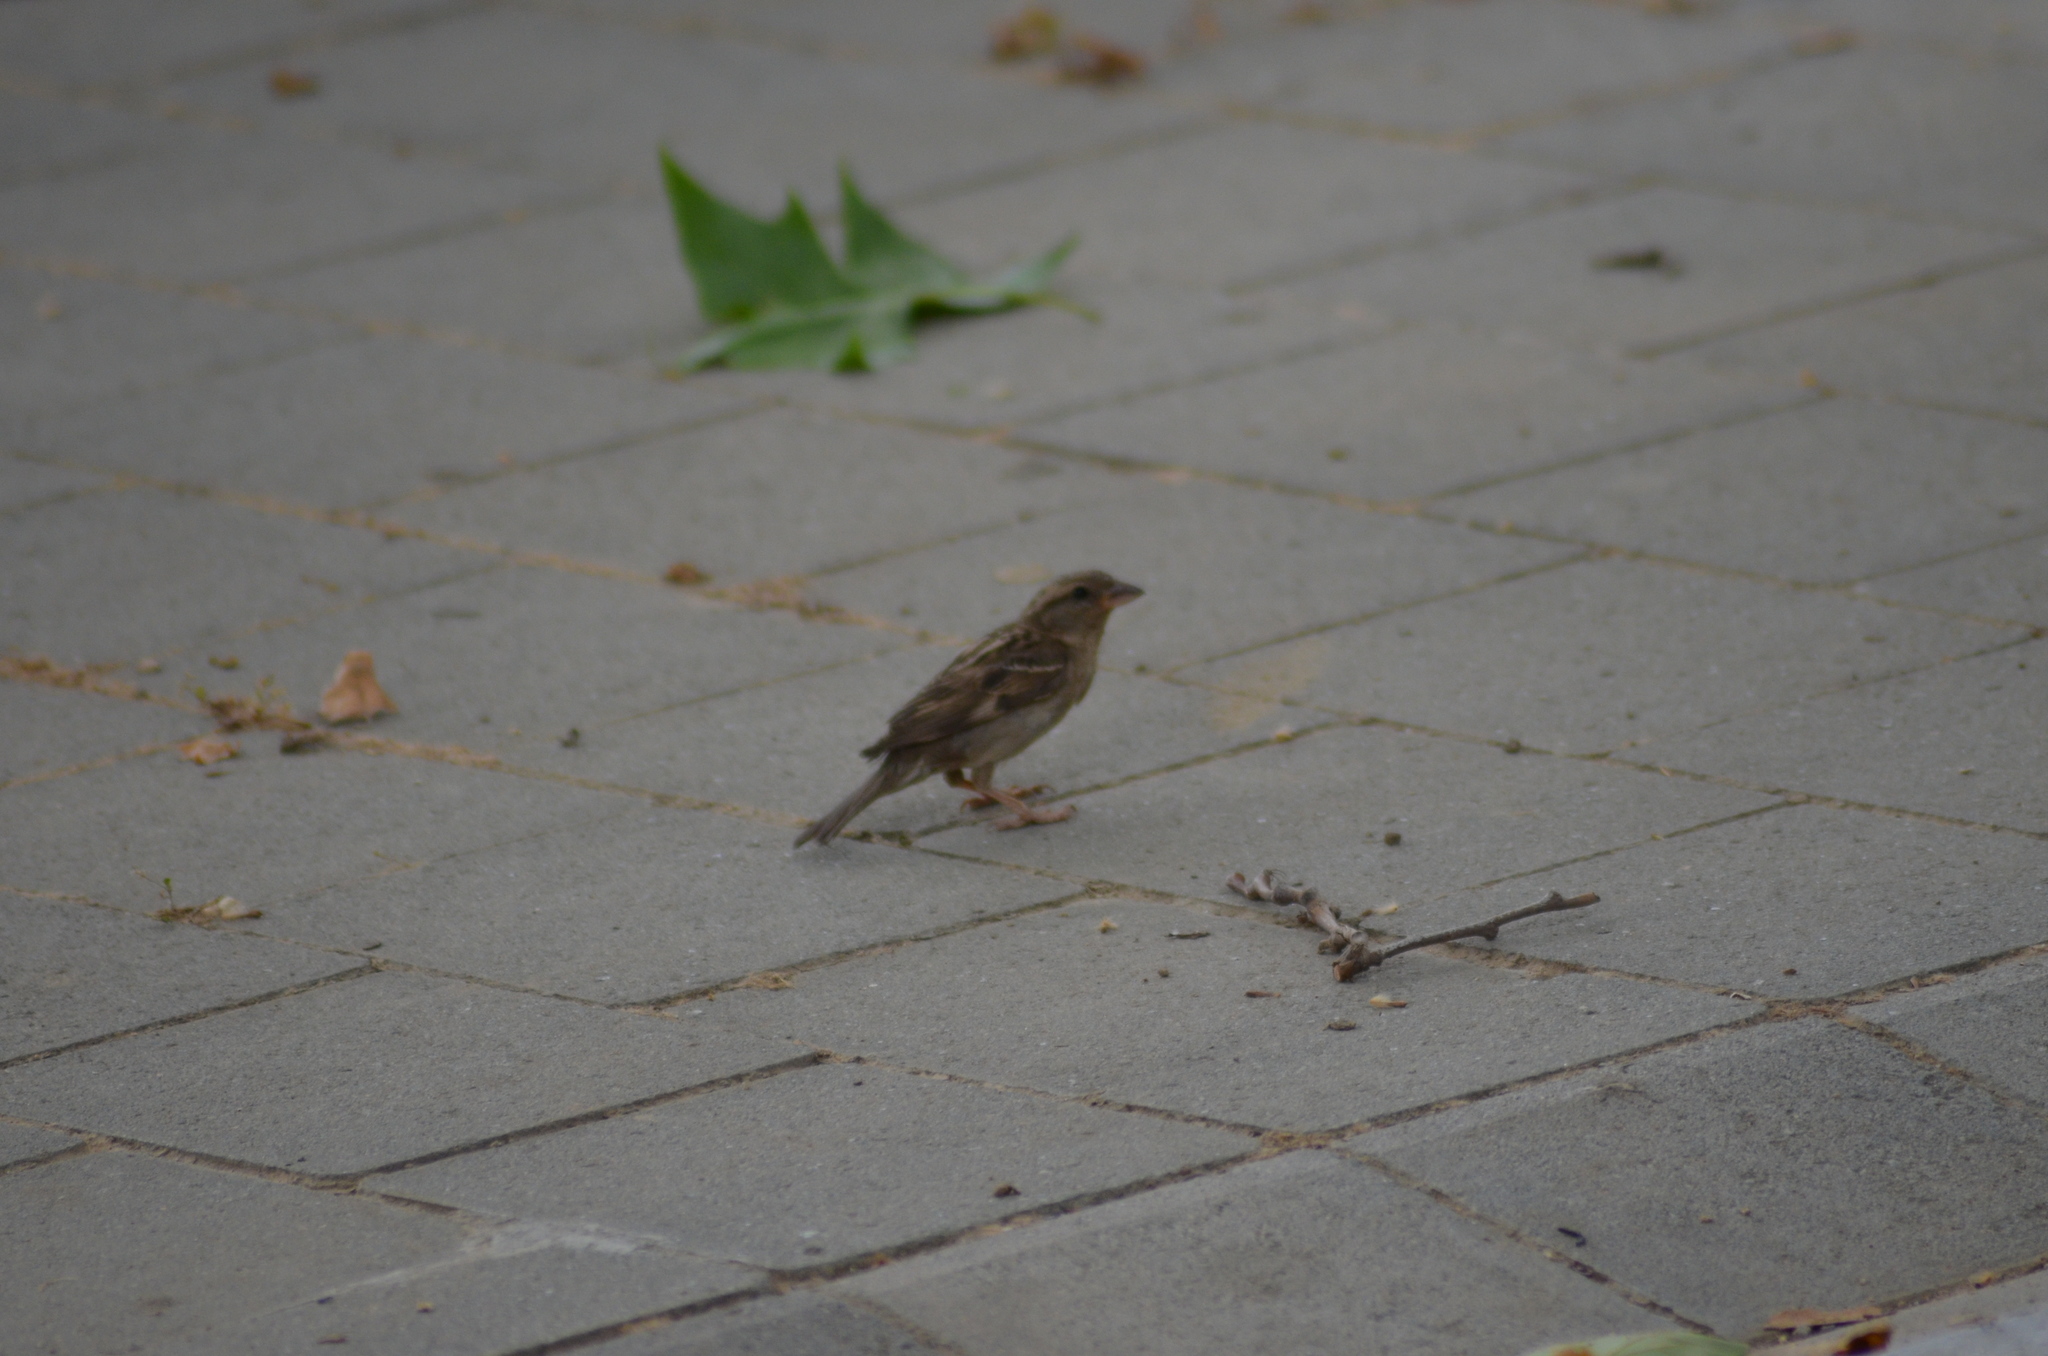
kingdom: Animalia
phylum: Chordata
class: Aves
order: Passeriformes
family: Passeridae
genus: Passer
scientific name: Passer domesticus
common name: House sparrow
